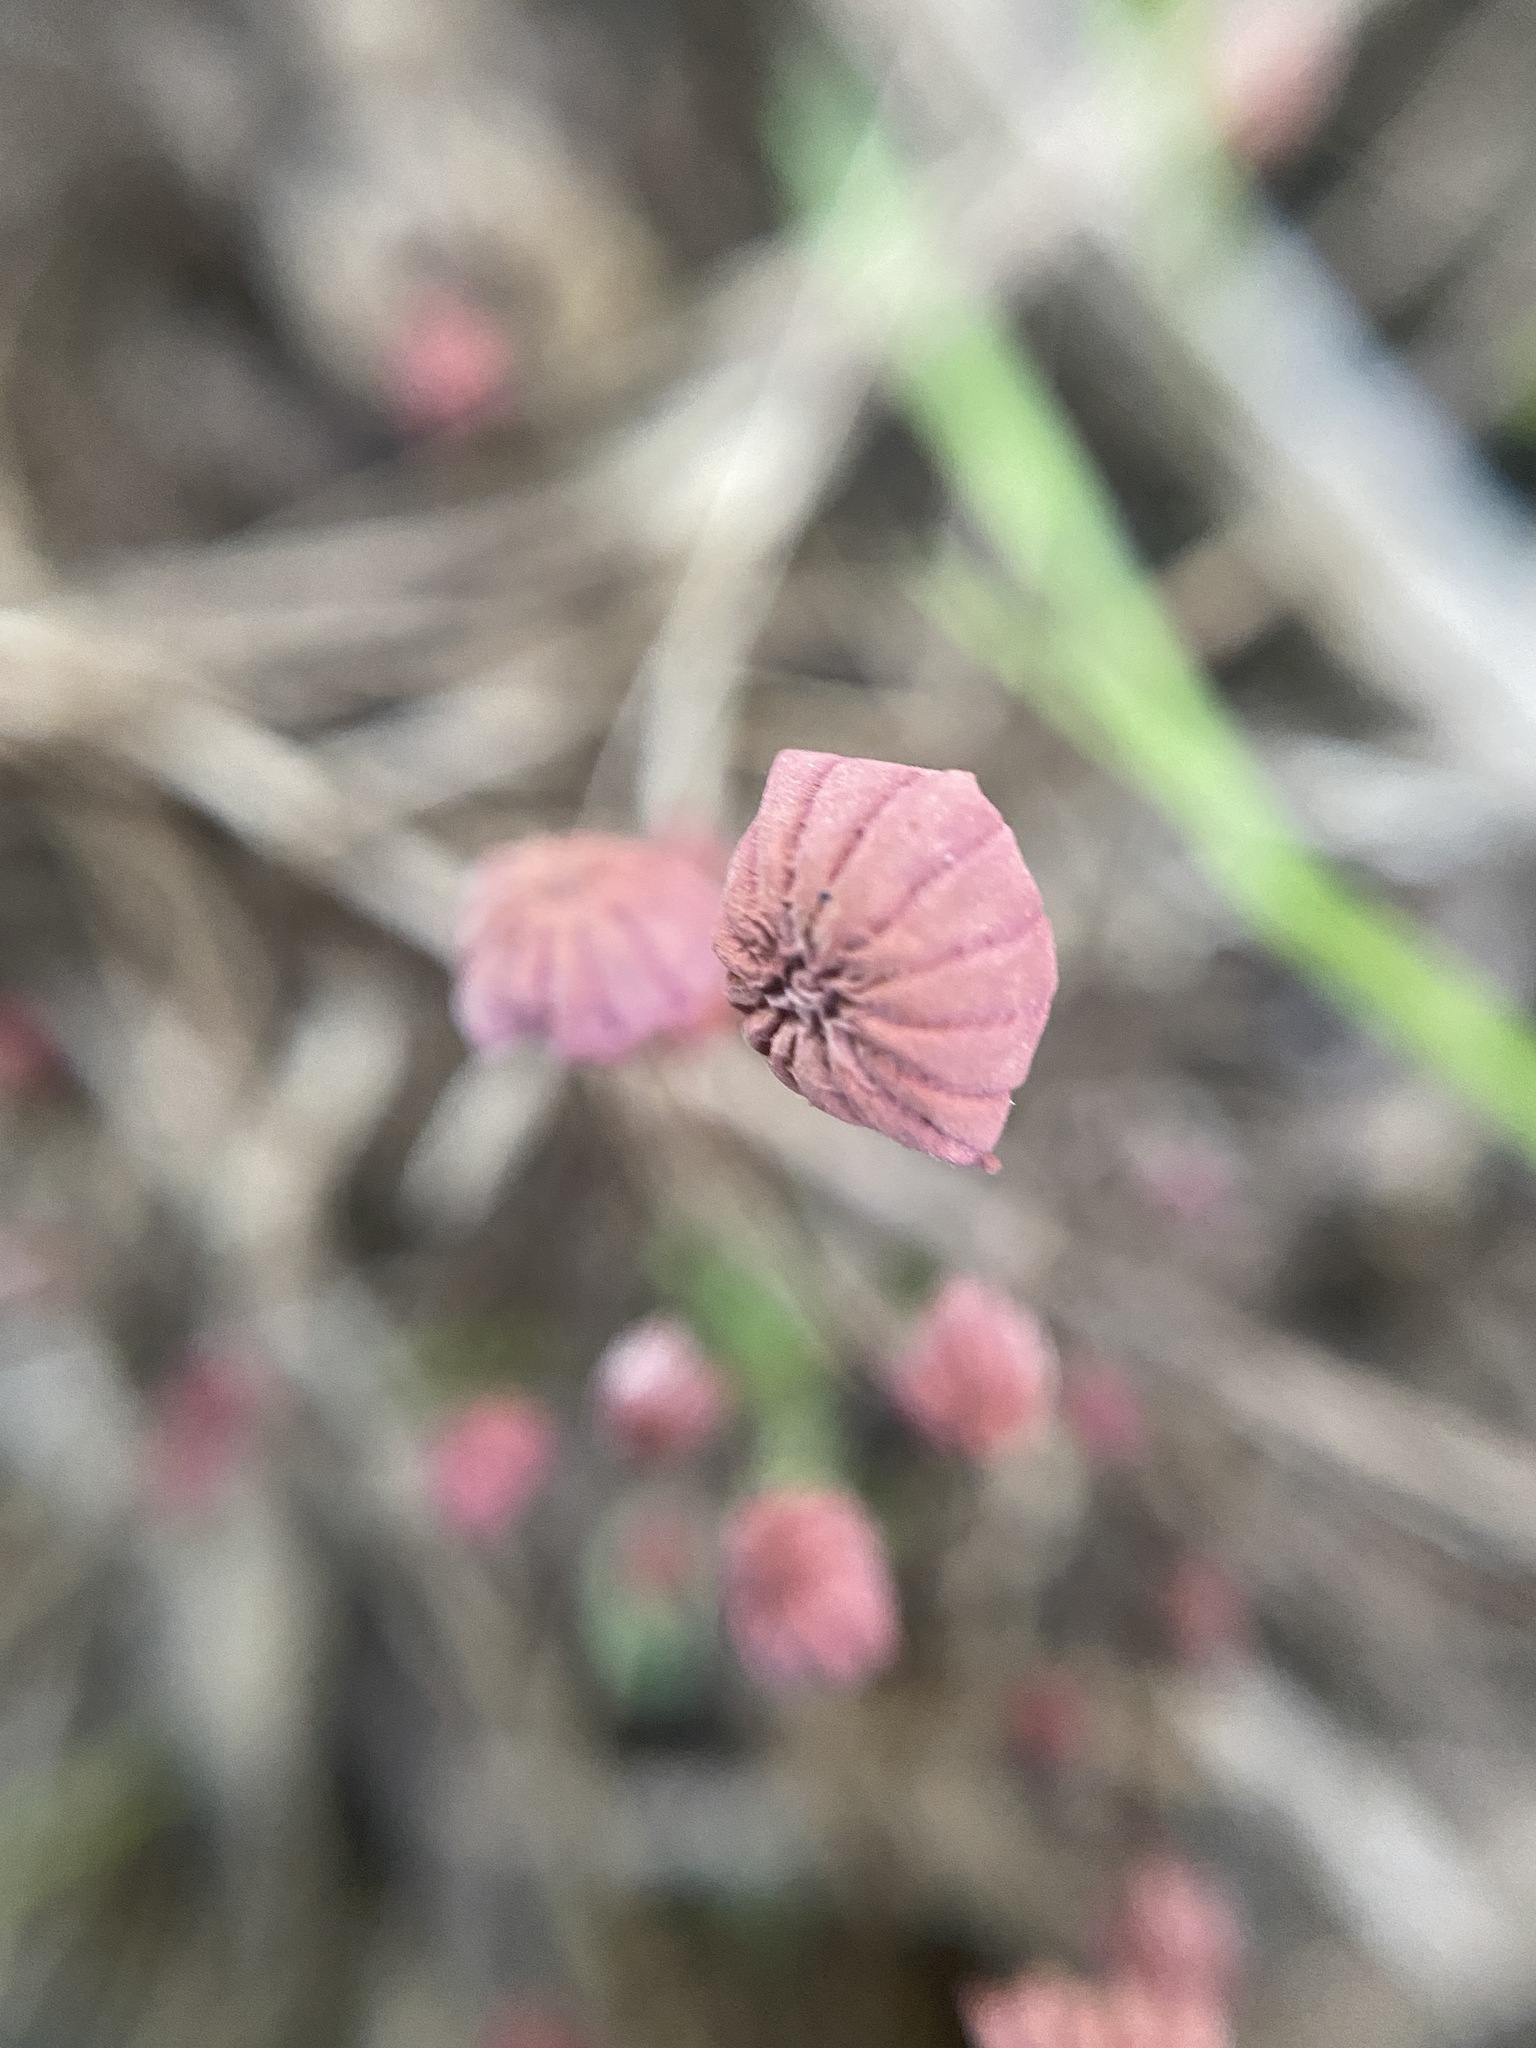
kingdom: Fungi
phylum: Basidiomycota
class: Agaricomycetes
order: Agaricales
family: Marasmiaceae
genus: Marasmius
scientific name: Marasmius haematocephalus
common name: Purple pinwheel
